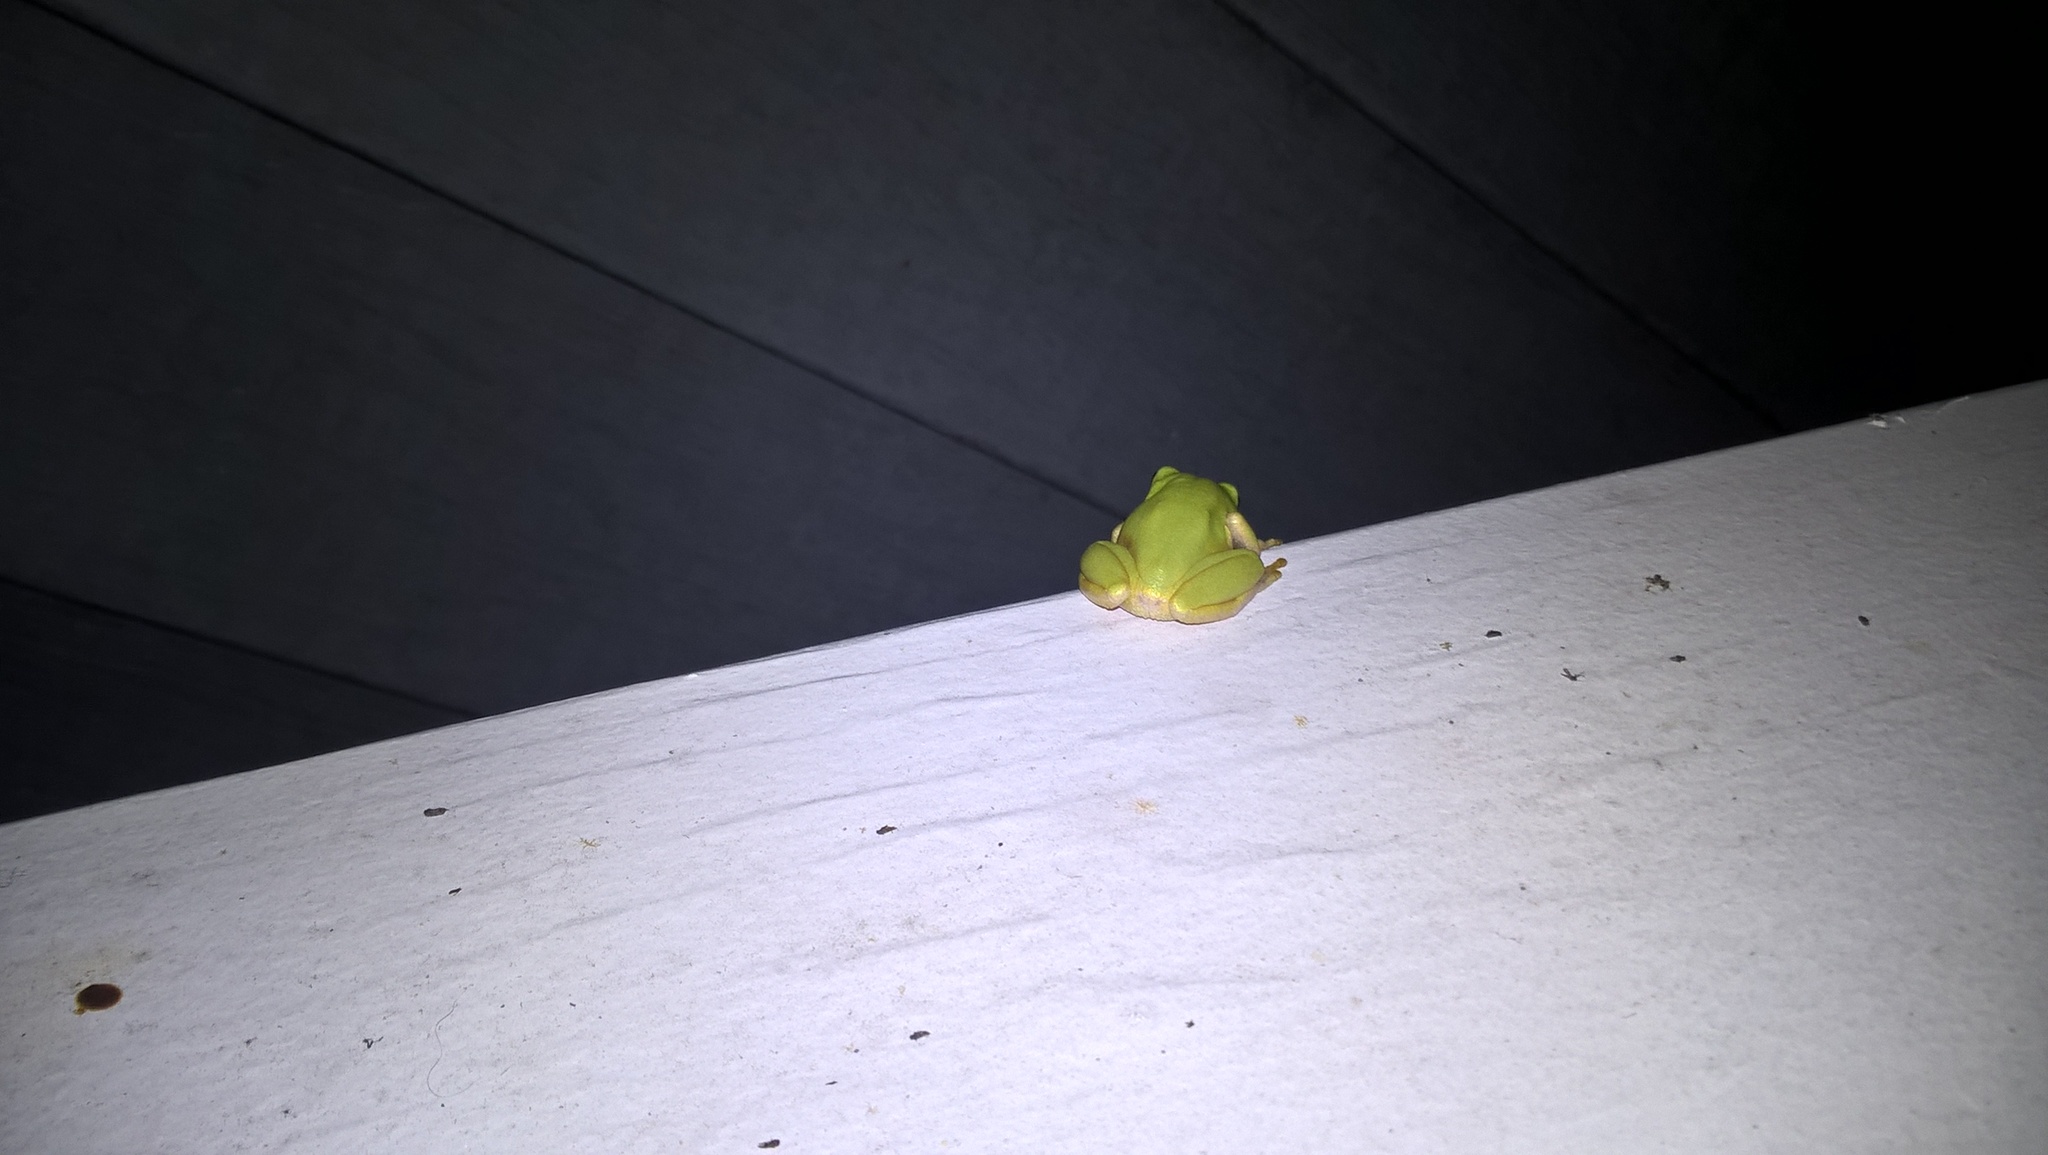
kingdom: Animalia
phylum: Chordata
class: Amphibia
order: Anura
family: Hylidae
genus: Dryophytes
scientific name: Dryophytes squirellus
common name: Squirrel treefrog
